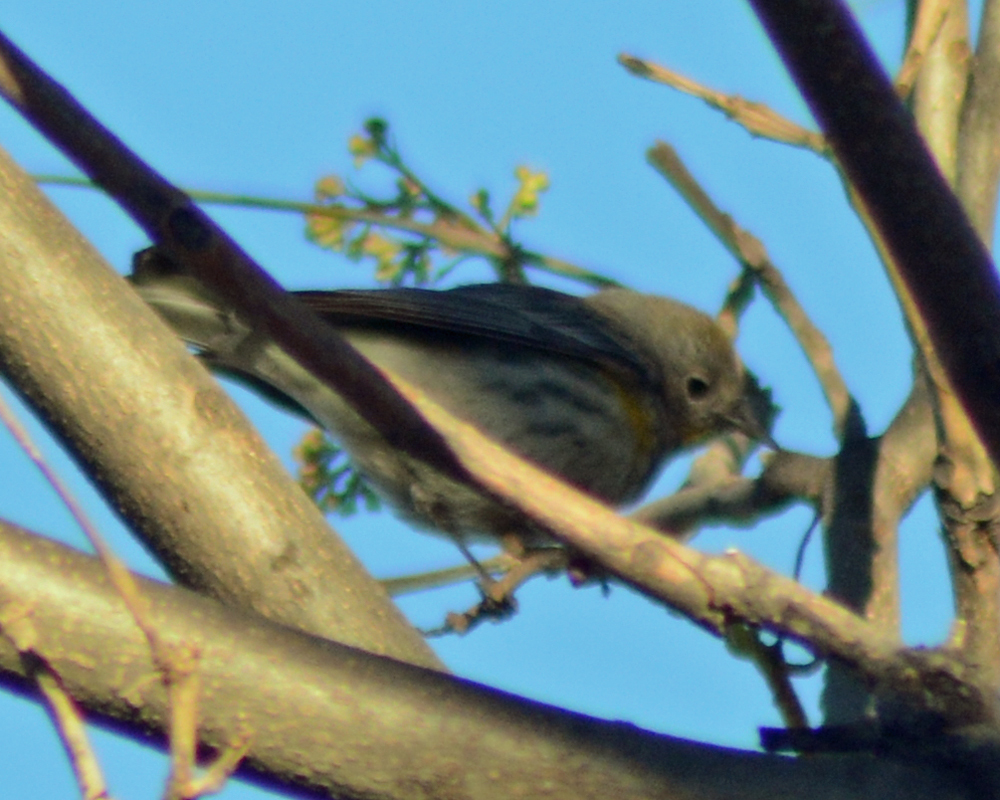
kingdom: Animalia
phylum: Chordata
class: Aves
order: Passeriformes
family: Parulidae
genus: Setophaga
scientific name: Setophaga coronata
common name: Myrtle warbler
